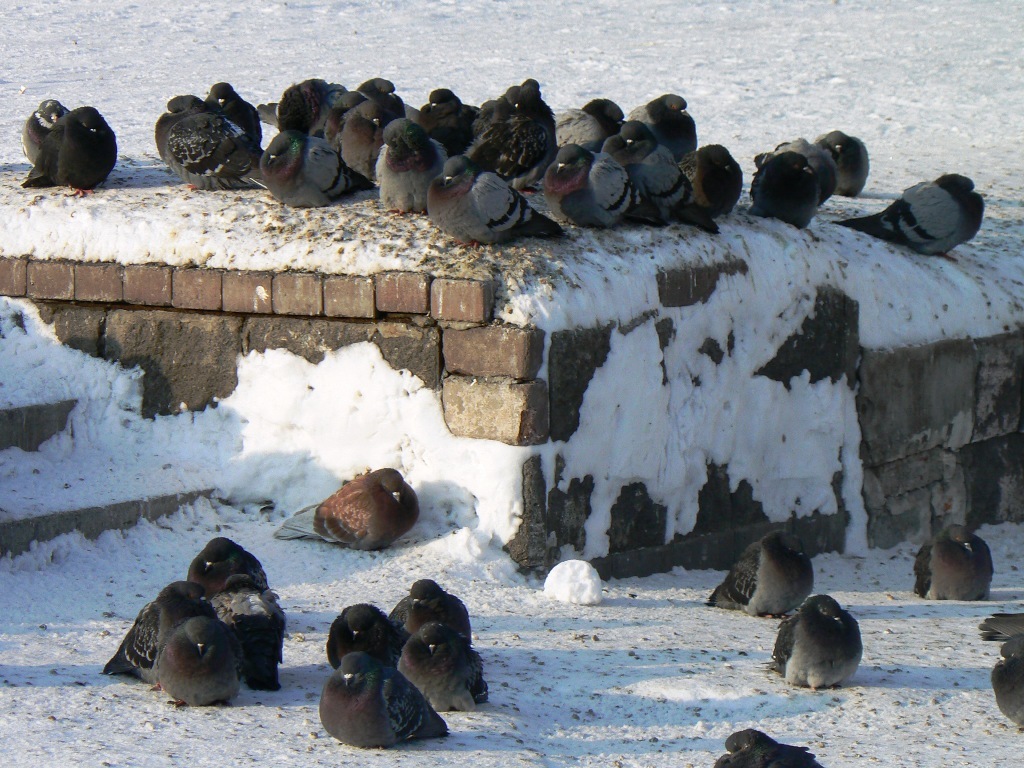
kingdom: Animalia
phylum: Chordata
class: Aves
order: Columbiformes
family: Columbidae
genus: Columba
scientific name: Columba livia
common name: Rock pigeon
